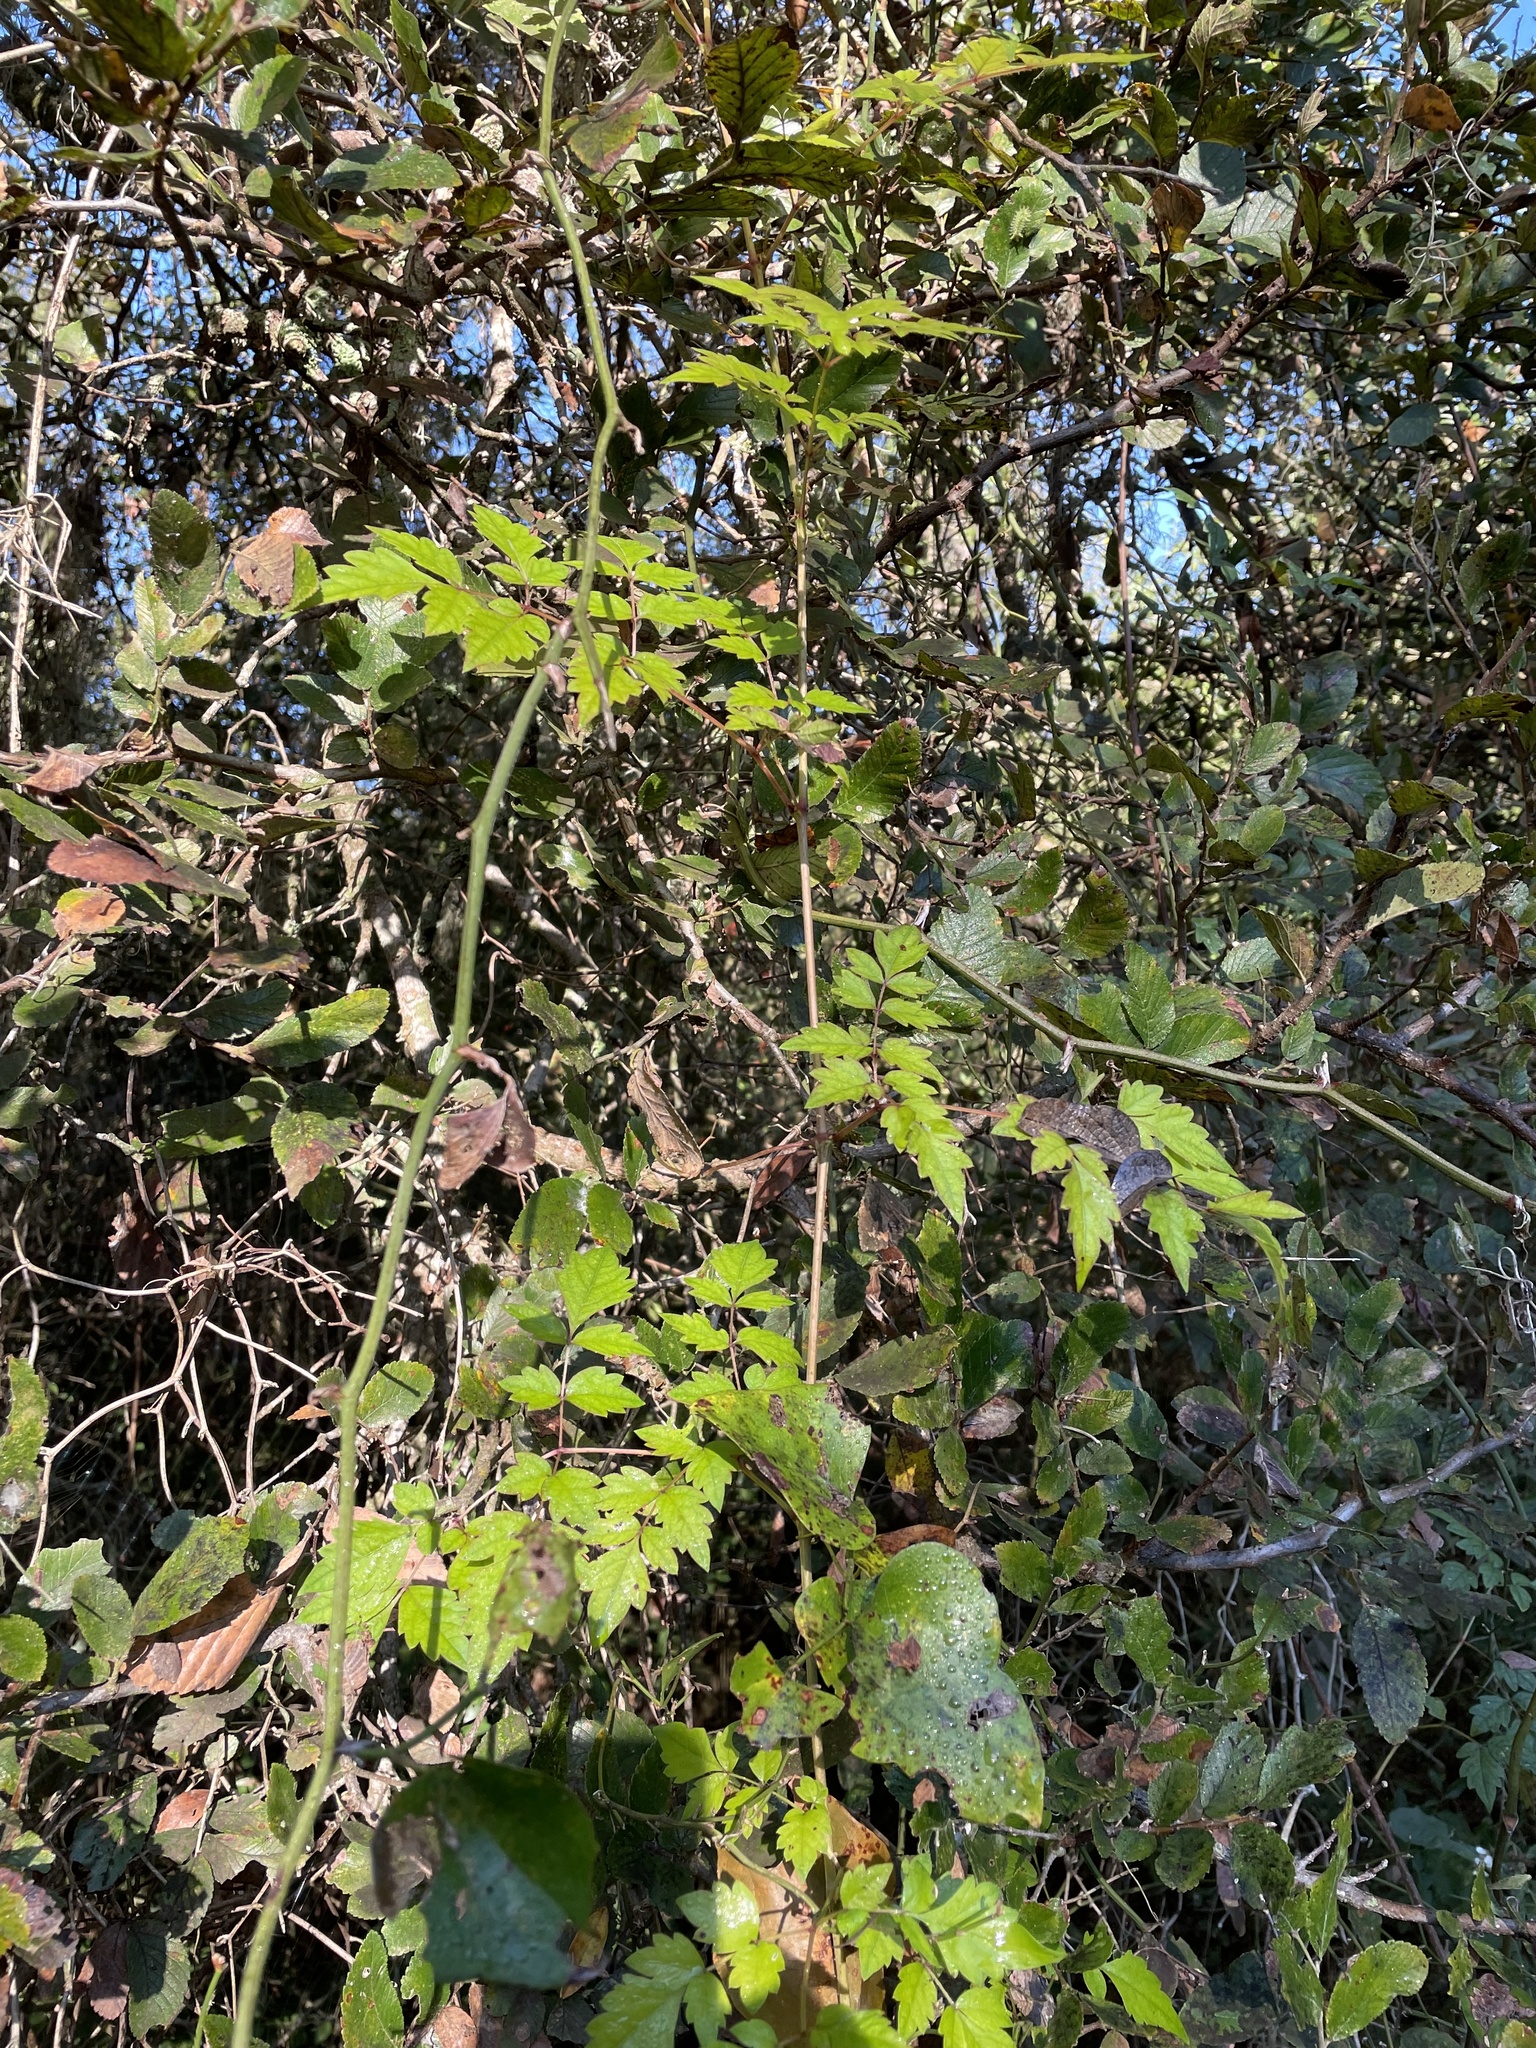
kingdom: Plantae
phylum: Tracheophyta
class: Magnoliopsida
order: Vitales
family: Vitaceae
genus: Nekemias
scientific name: Nekemias arborea
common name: Peppervine
